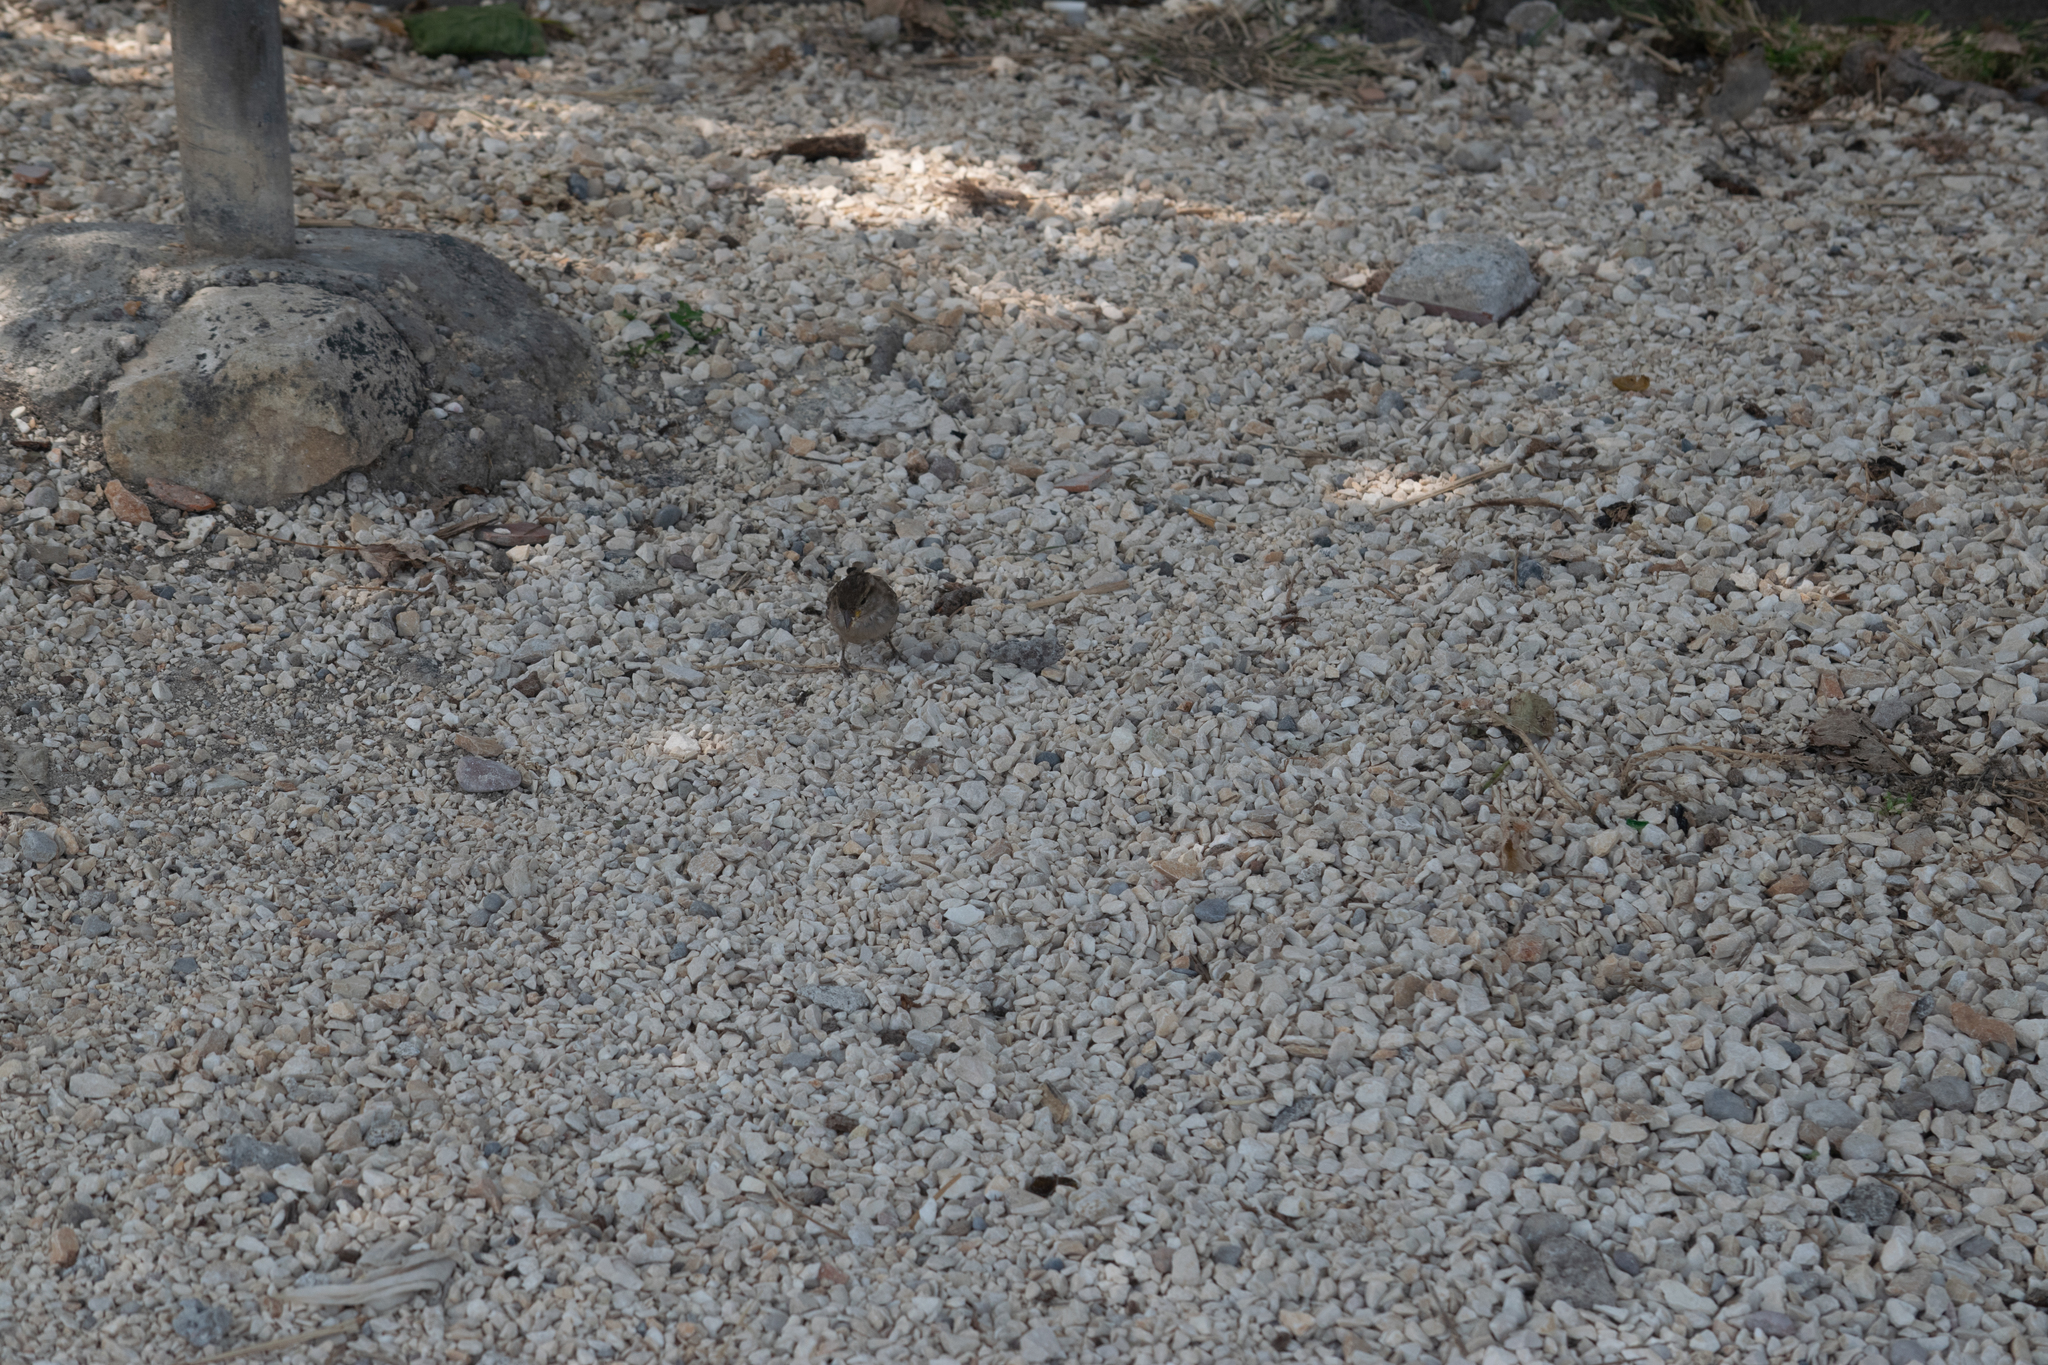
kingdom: Animalia
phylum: Chordata
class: Aves
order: Passeriformes
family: Passeridae
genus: Passer
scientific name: Passer italiae
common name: Italian sparrow
